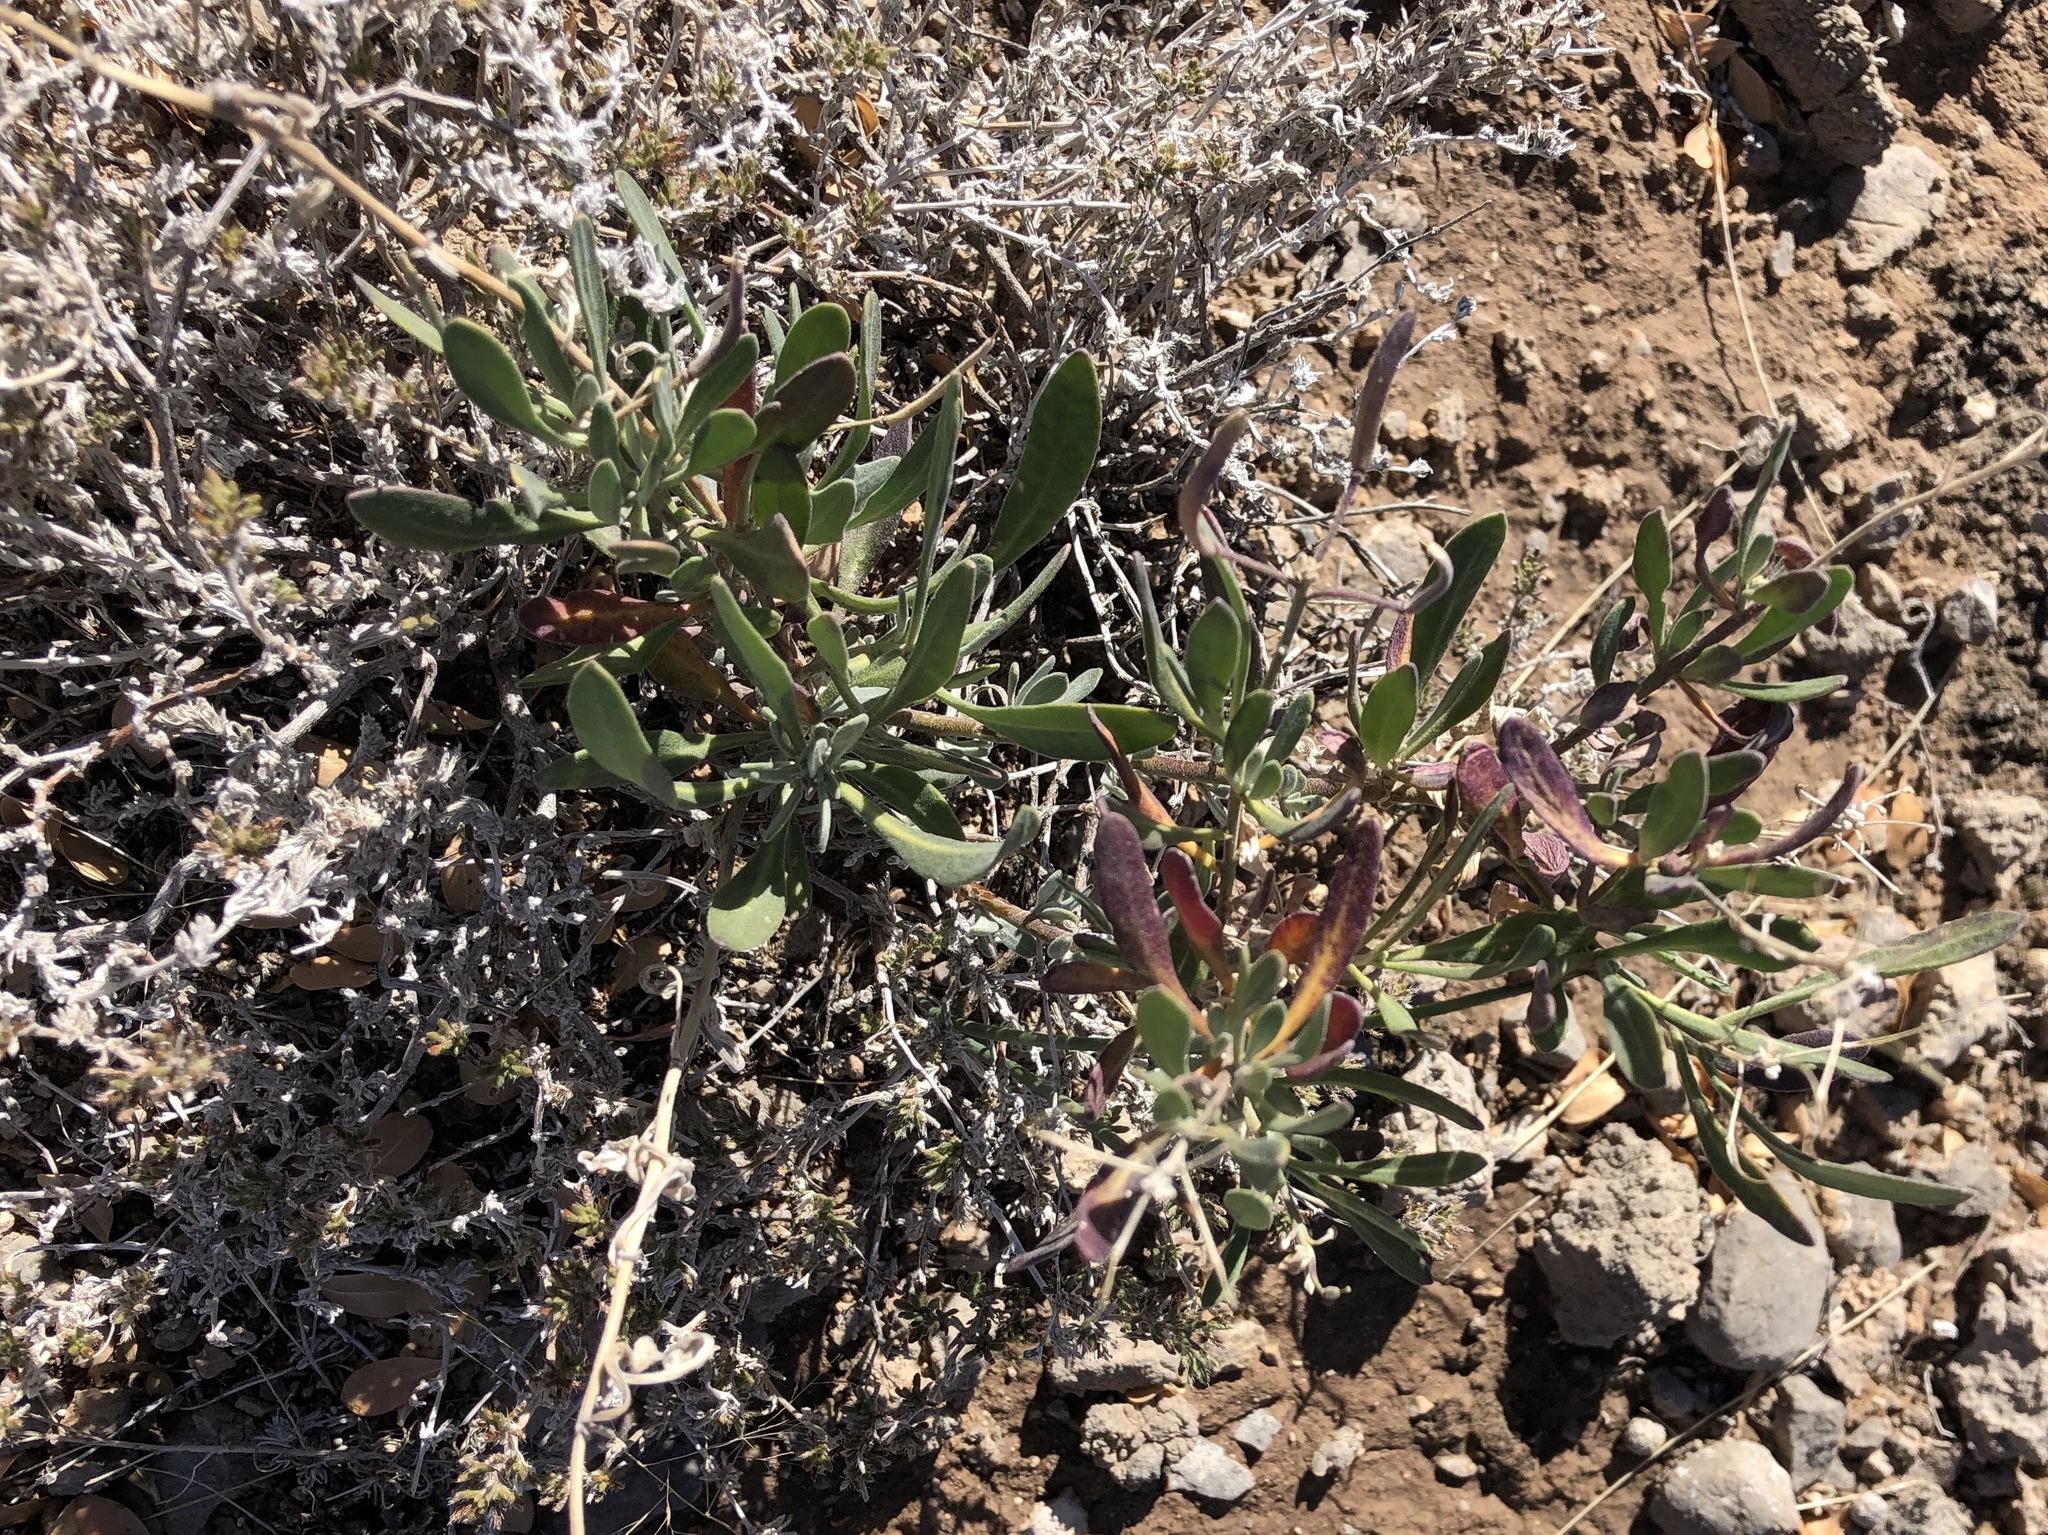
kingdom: Plantae
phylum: Tracheophyta
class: Magnoliopsida
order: Brassicales
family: Brassicaceae
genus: Nerisyrenia
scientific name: Nerisyrenia camporum
